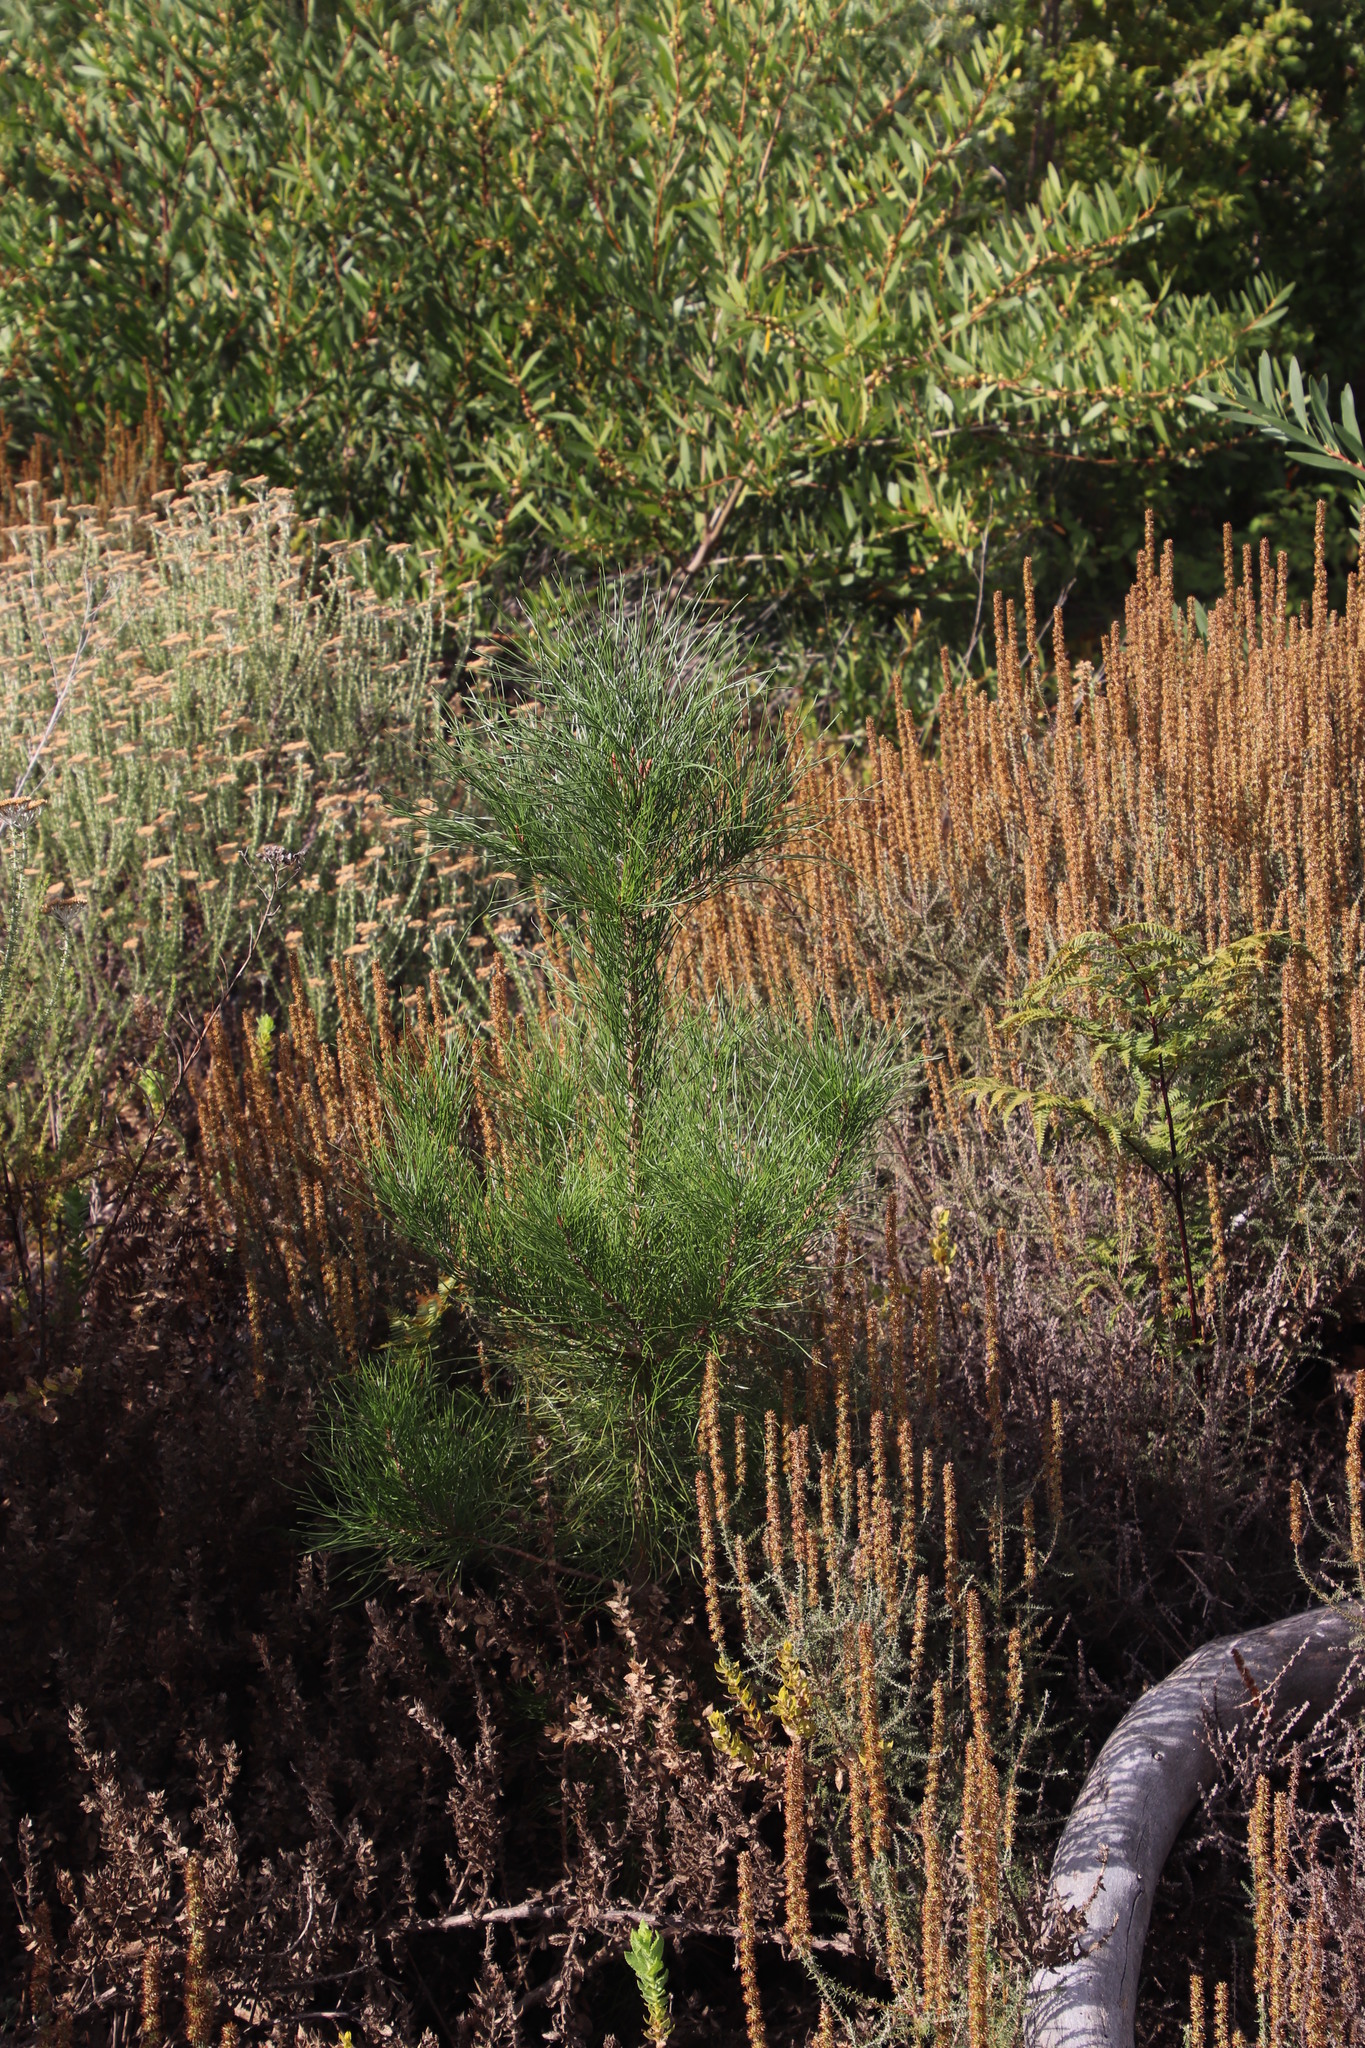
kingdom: Plantae
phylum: Tracheophyta
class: Pinopsida
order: Pinales
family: Pinaceae
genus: Pinus
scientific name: Pinus radiata
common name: Monterey pine
